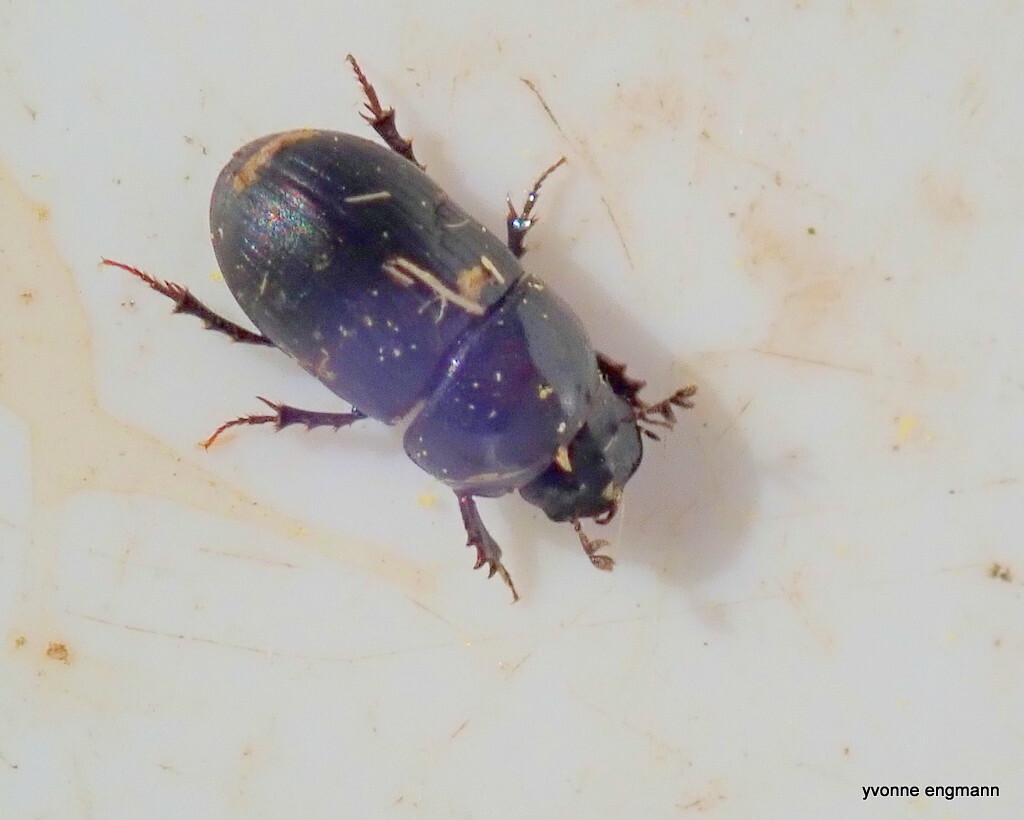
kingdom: Animalia
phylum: Arthropoda
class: Insecta
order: Coleoptera
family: Scarabaeidae
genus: Agrilinus
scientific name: Agrilinus ater
